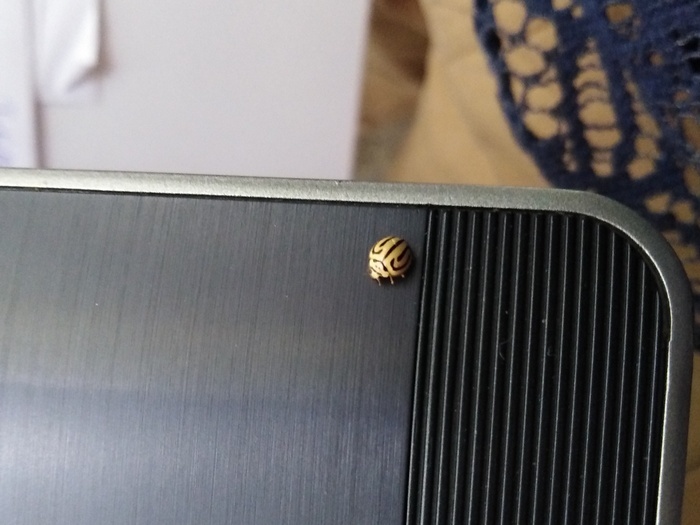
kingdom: Animalia
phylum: Arthropoda
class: Insecta
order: Coleoptera
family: Coccinellidae
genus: Anegleis
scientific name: Anegleis cardoni
